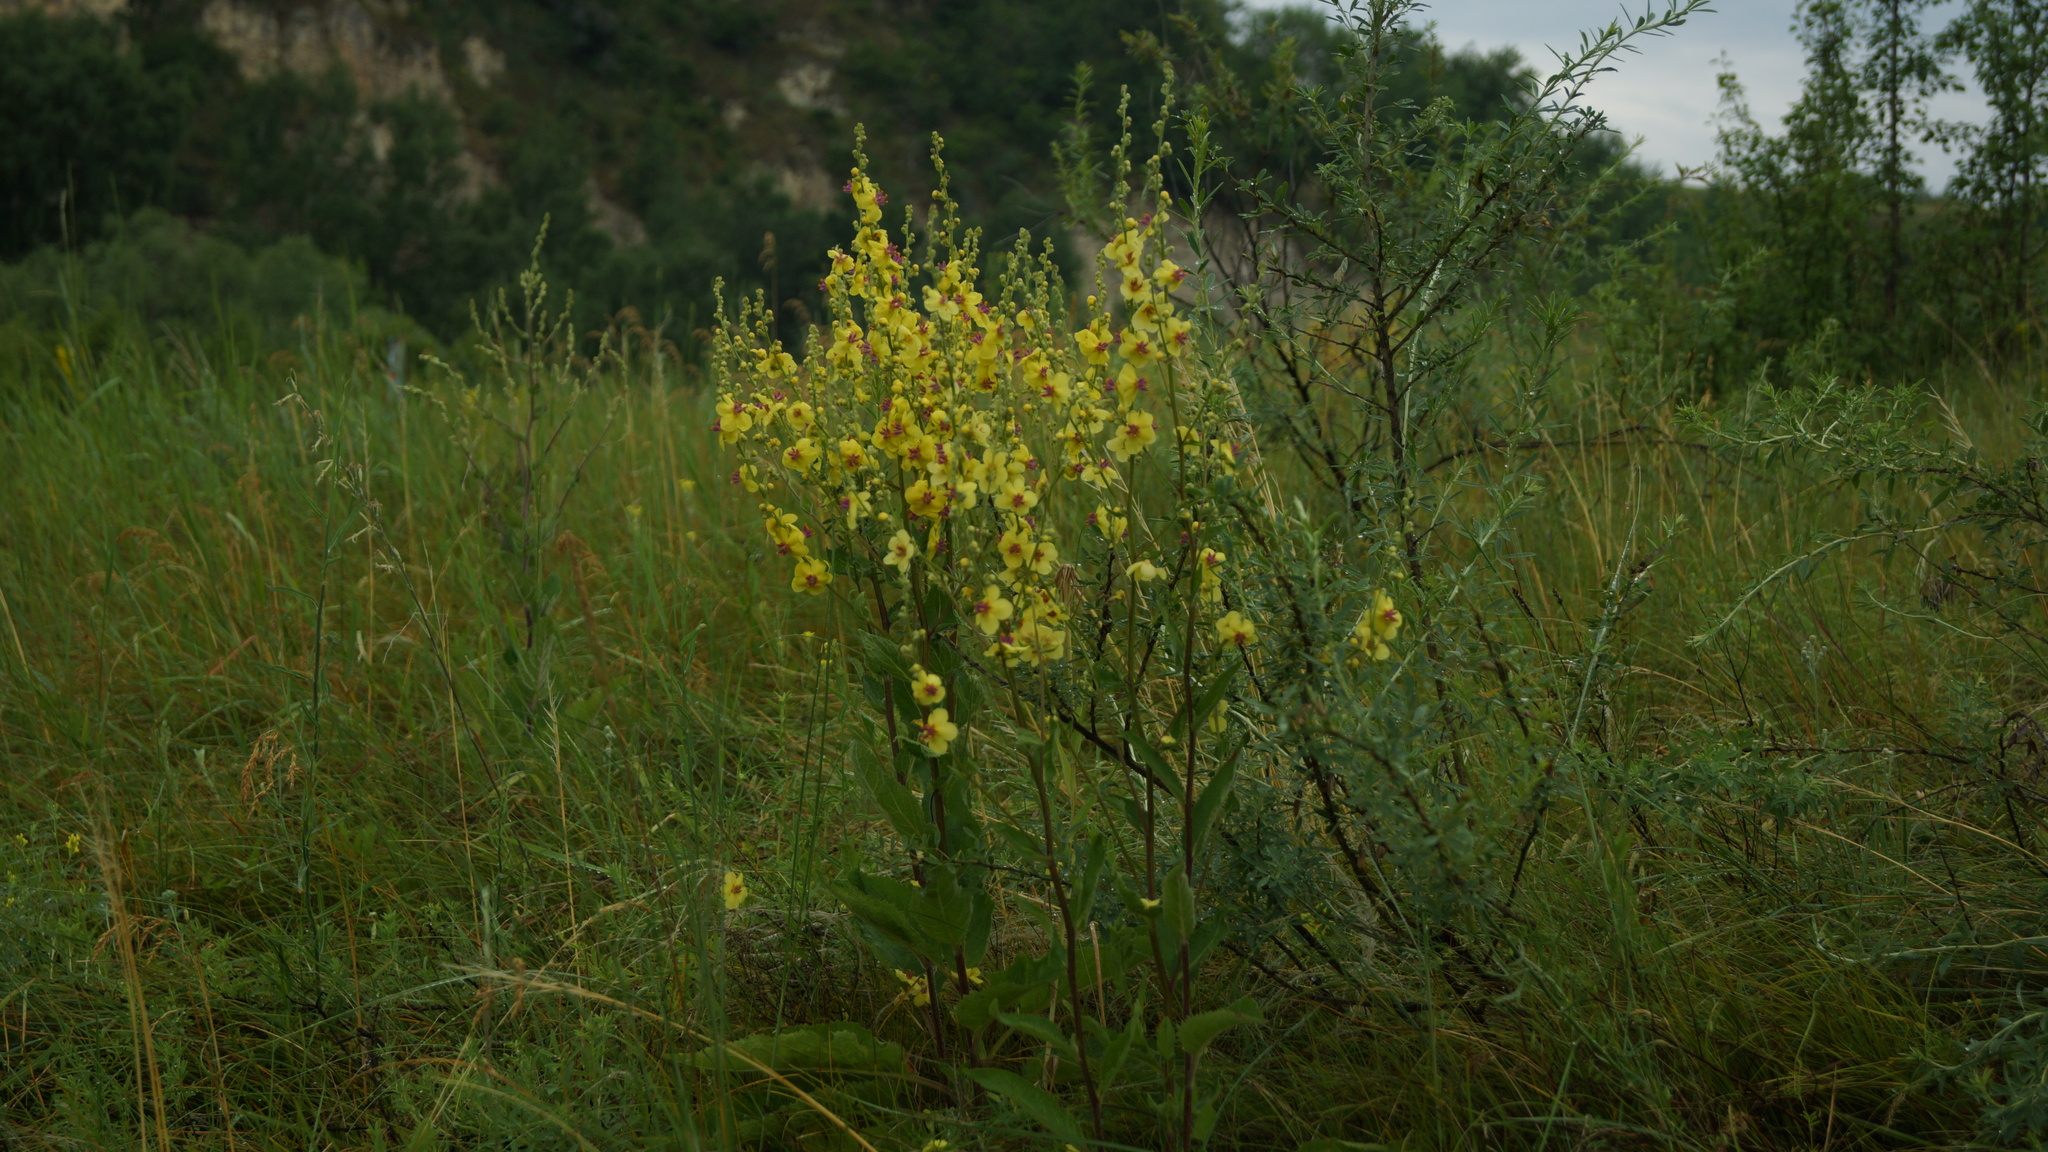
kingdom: Plantae
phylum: Tracheophyta
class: Magnoliopsida
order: Lamiales
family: Scrophulariaceae
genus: Verbascum
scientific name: Verbascum chaixii
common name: Nettle-leaved mullein
